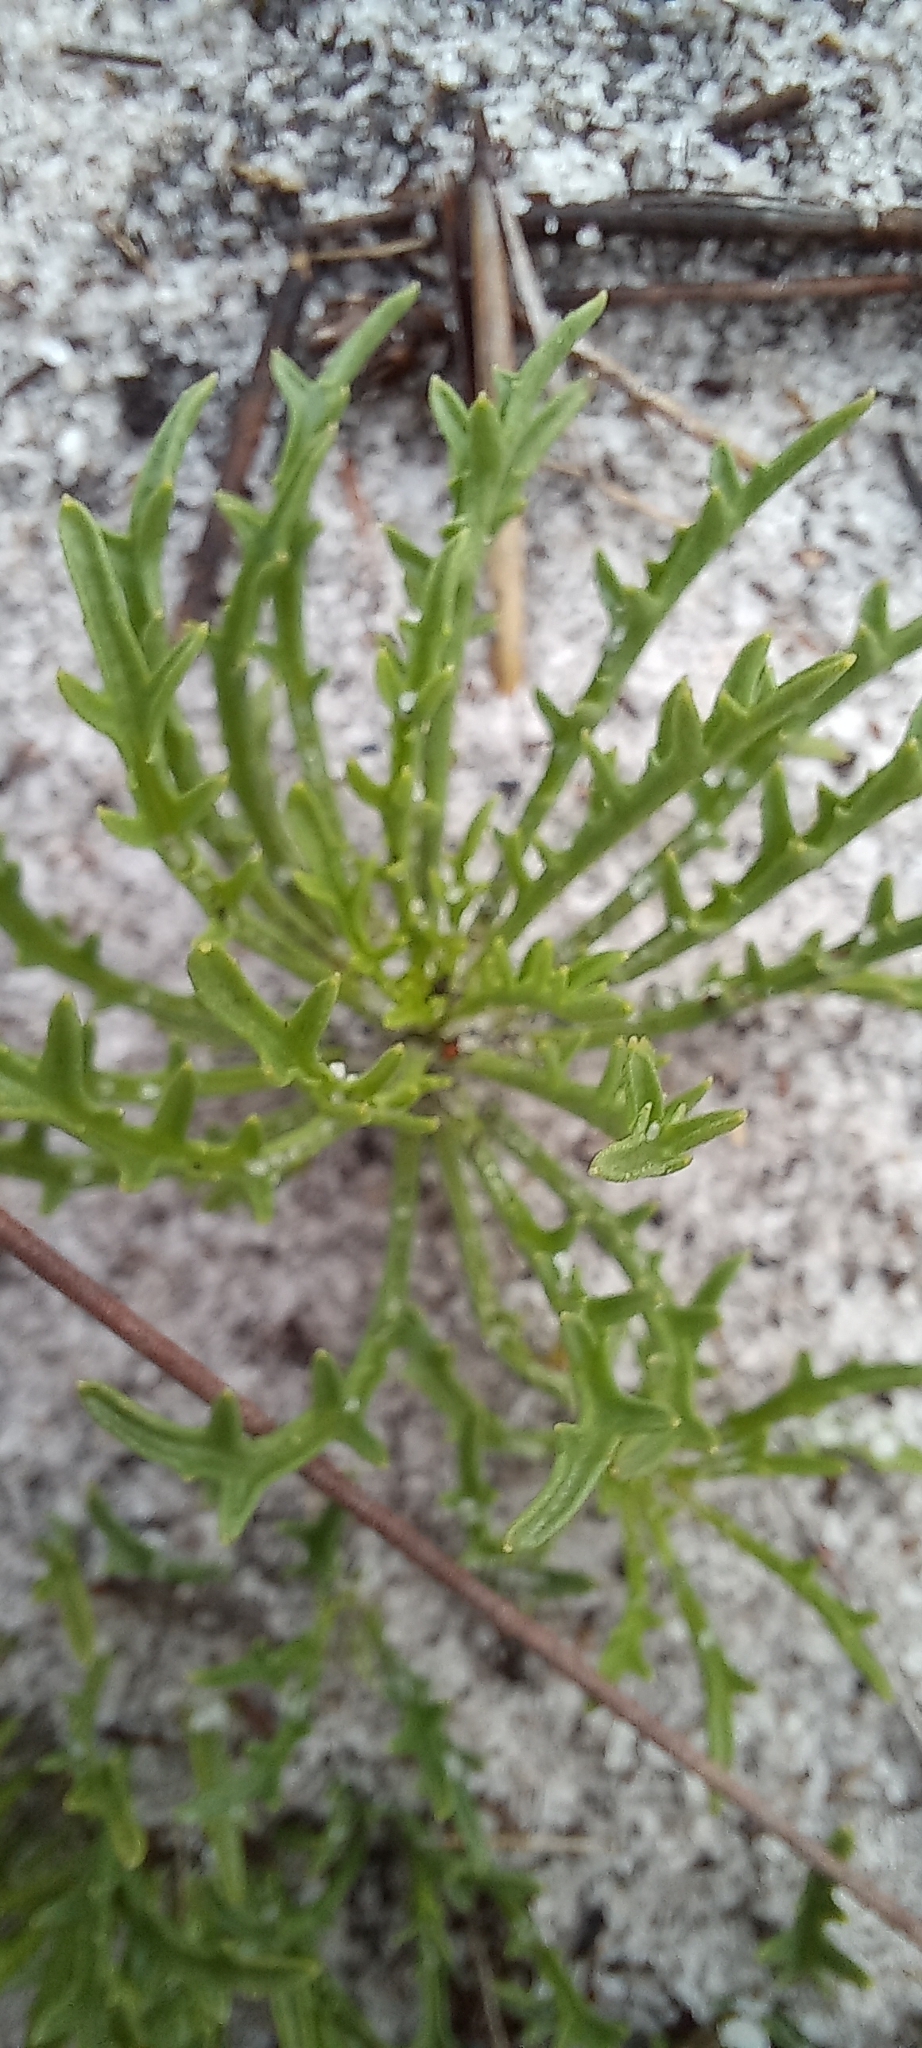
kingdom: Plantae
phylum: Tracheophyta
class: Magnoliopsida
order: Asterales
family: Campanulaceae
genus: Lobelia
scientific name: Lobelia coronopifolia
